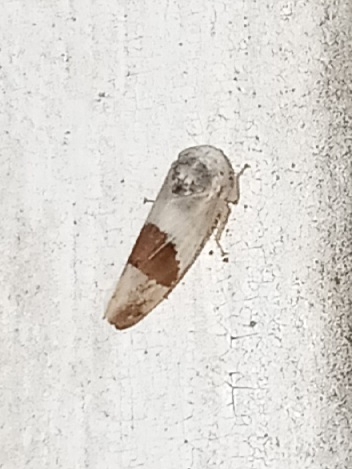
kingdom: Animalia
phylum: Arthropoda
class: Insecta
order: Hemiptera
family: Cicadellidae
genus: Norvellina
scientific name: Norvellina seminuda
